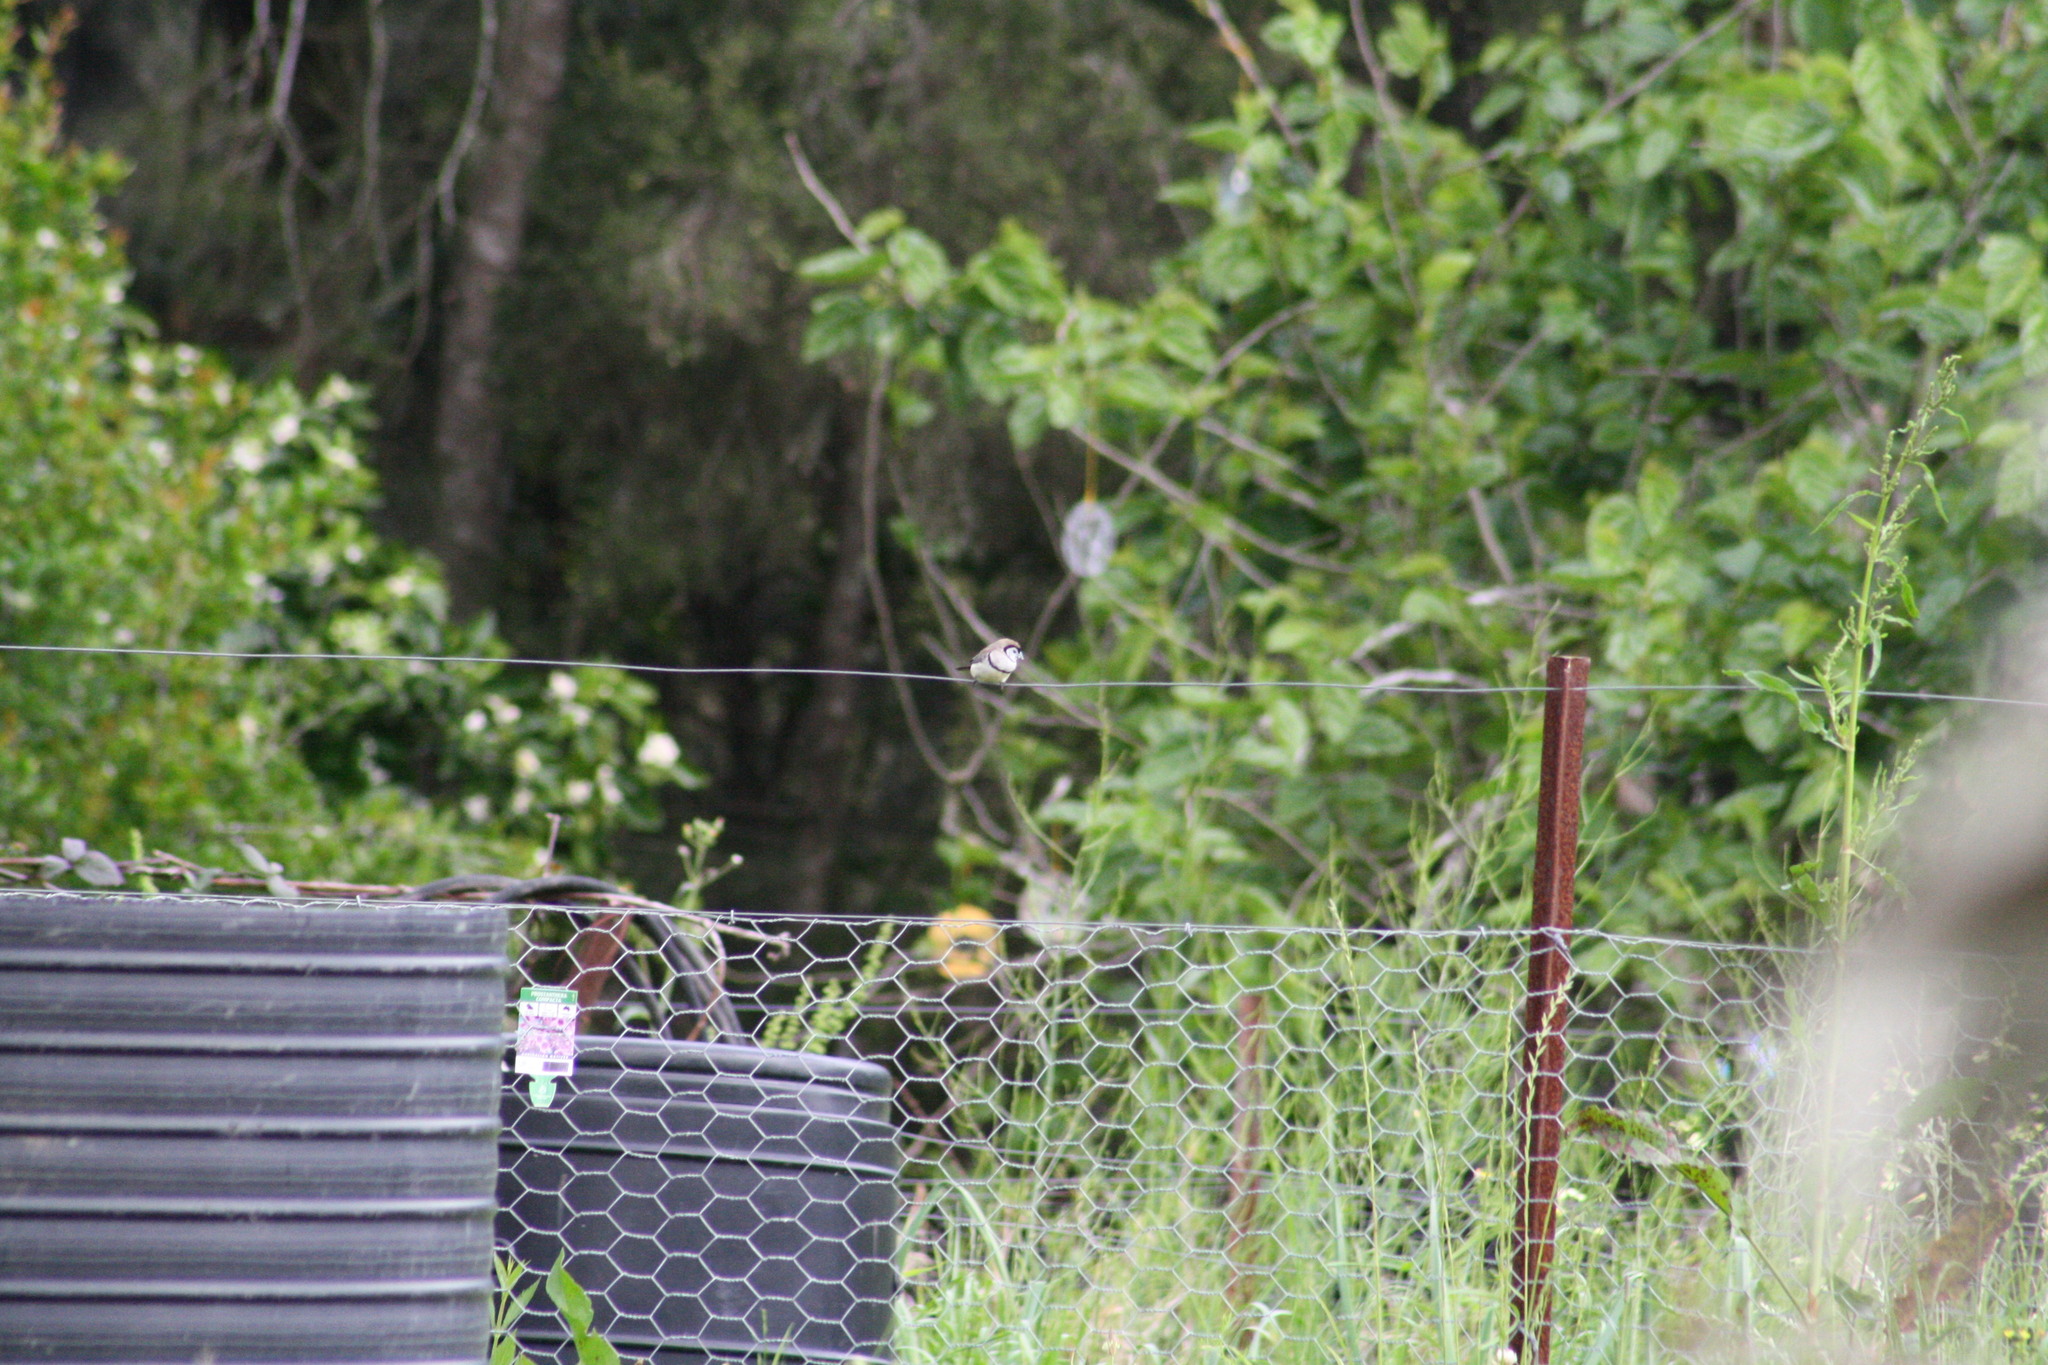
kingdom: Animalia
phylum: Chordata
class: Aves
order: Passeriformes
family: Estrildidae
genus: Taeniopygia
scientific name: Taeniopygia bichenovii
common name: Double-barred finch
